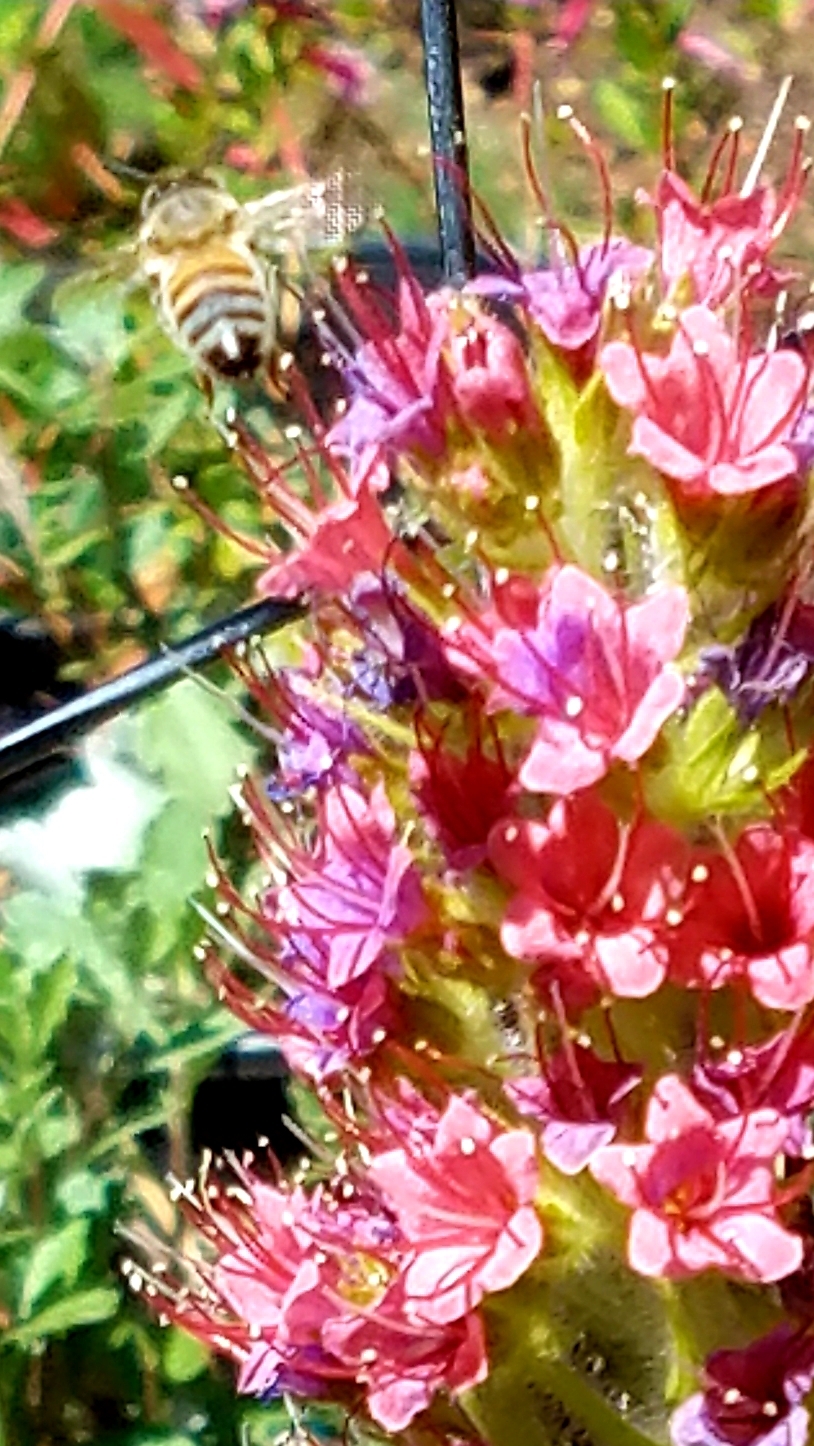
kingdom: Animalia
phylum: Arthropoda
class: Insecta
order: Hymenoptera
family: Apidae
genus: Apis
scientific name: Apis mellifera
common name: Honey bee
